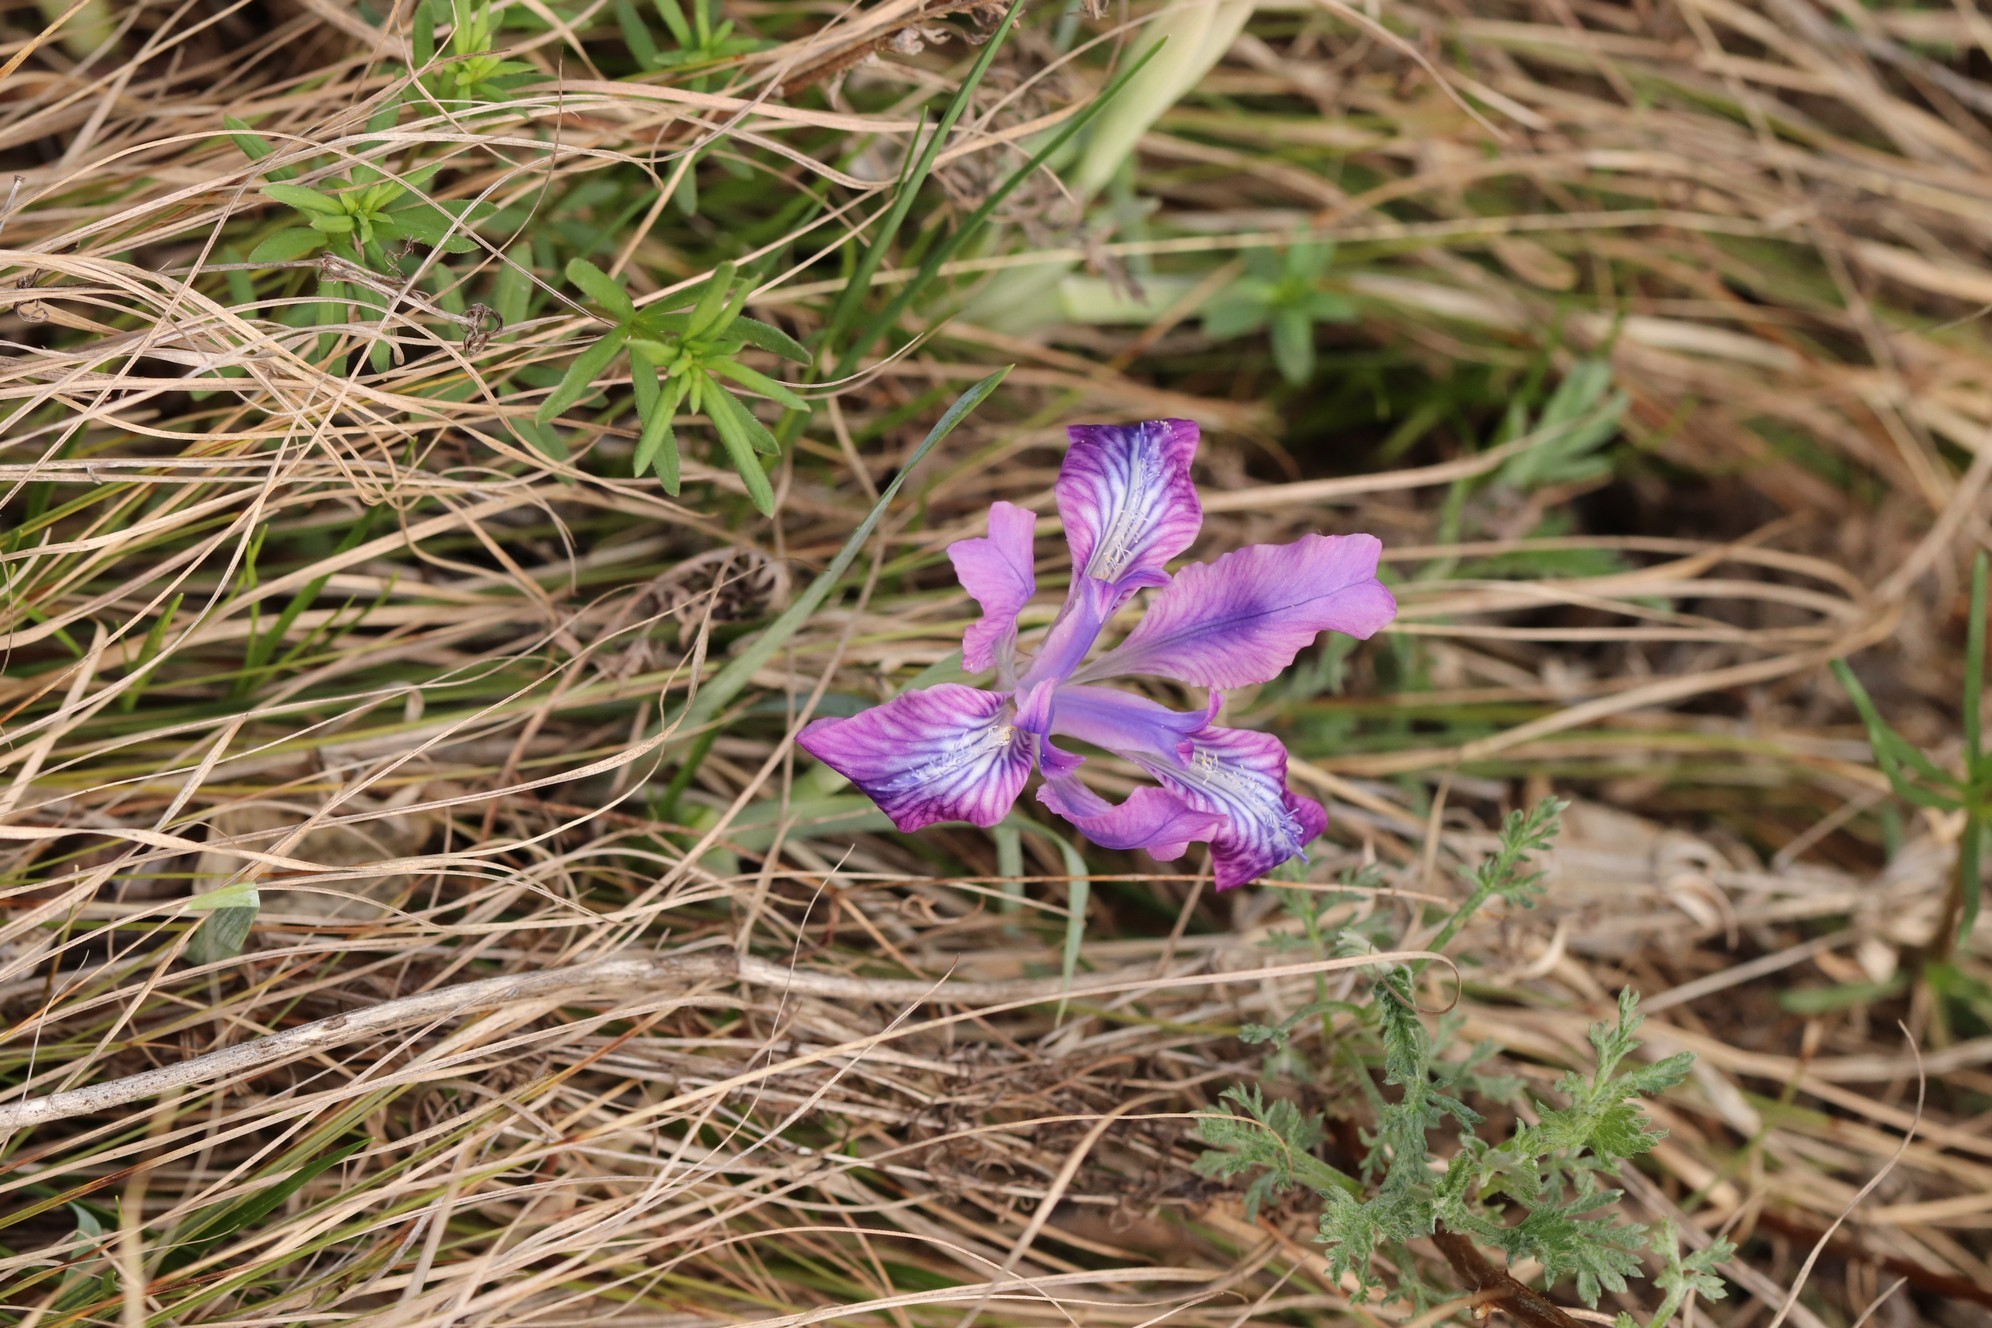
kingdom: Plantae
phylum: Tracheophyta
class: Liliopsida
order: Asparagales
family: Iridaceae
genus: Iris
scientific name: Iris tigridia
